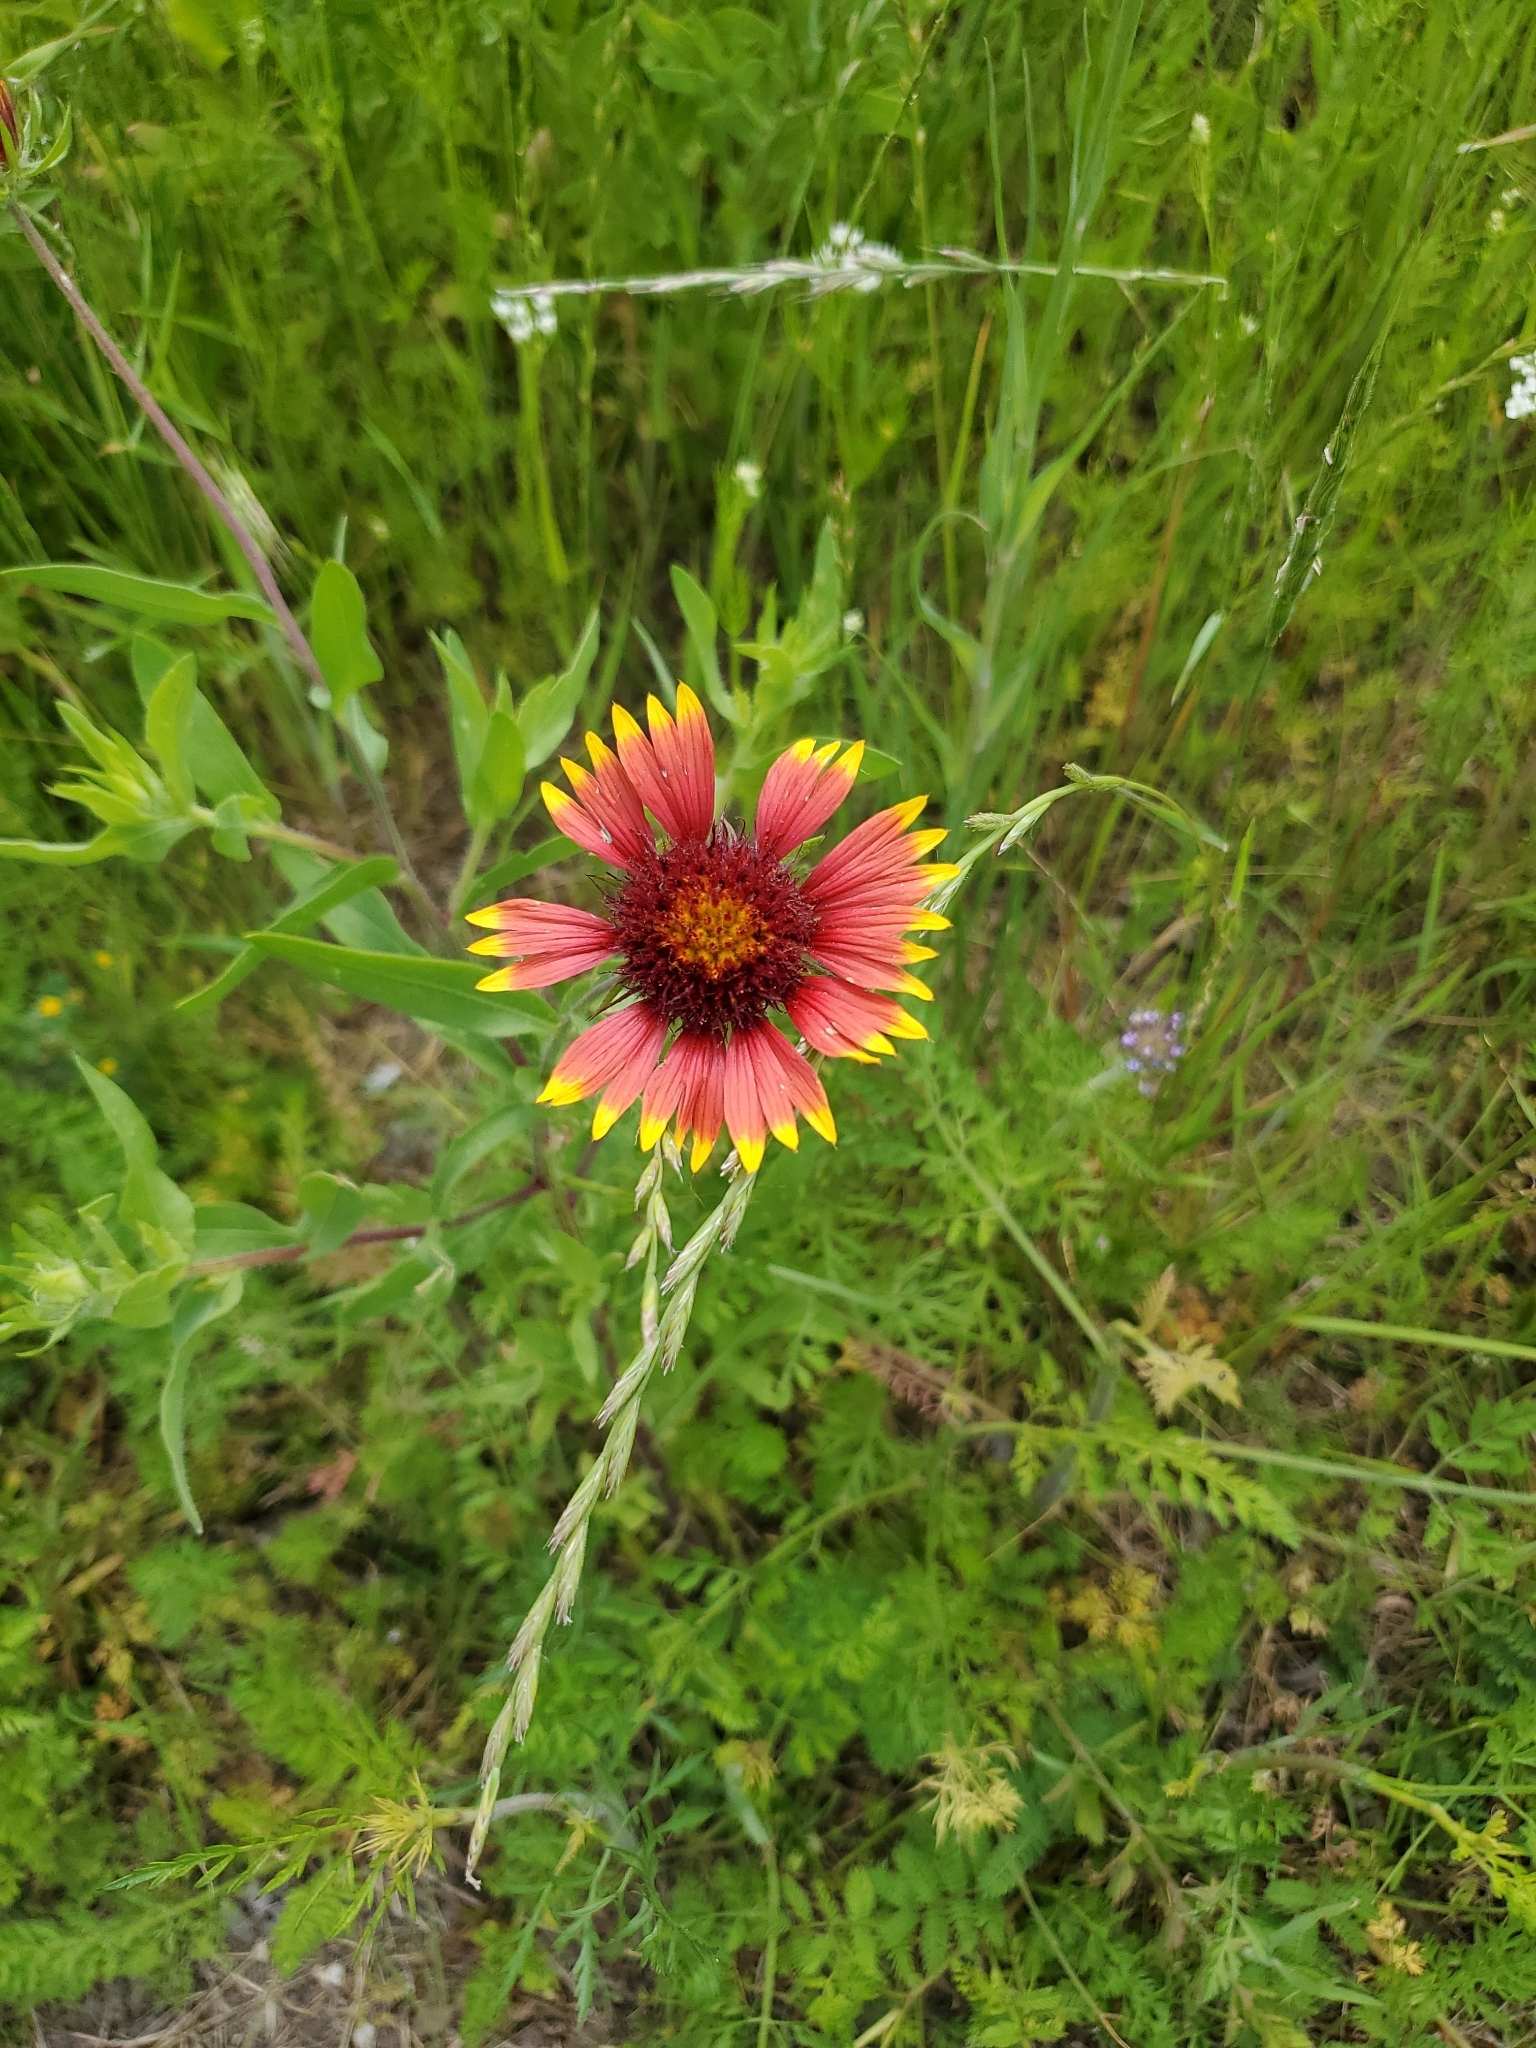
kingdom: Plantae
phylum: Tracheophyta
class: Magnoliopsida
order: Asterales
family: Asteraceae
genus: Gaillardia
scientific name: Gaillardia pulchella
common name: Firewheel
